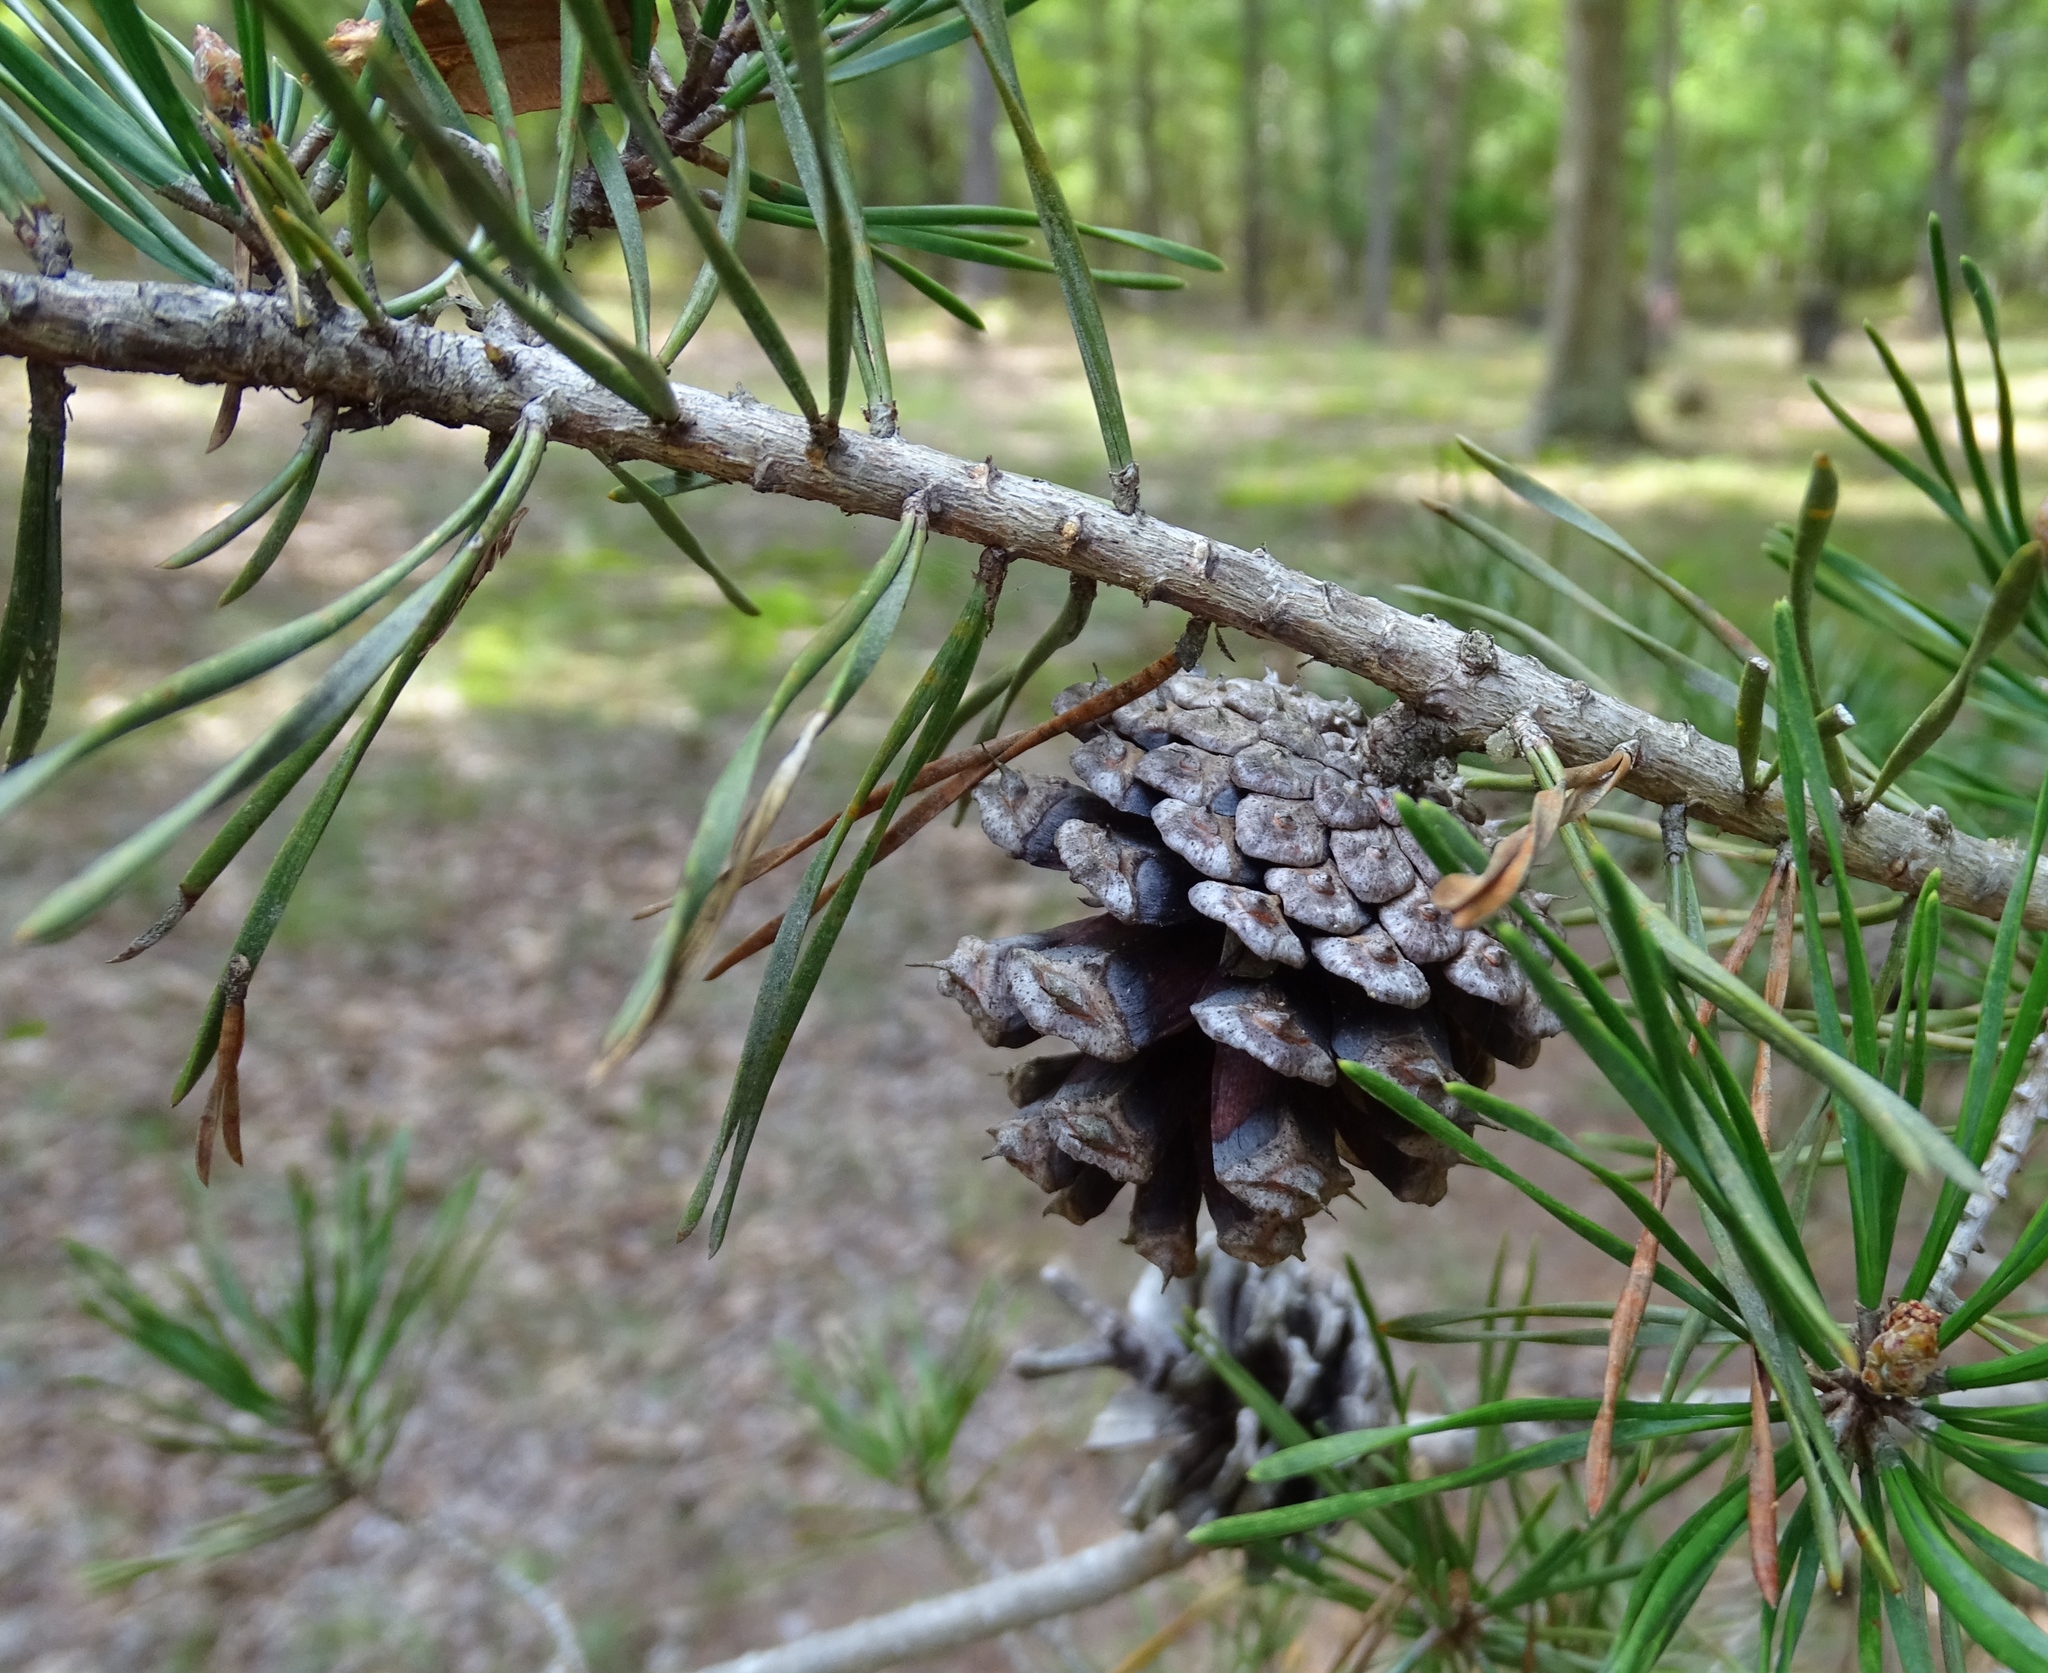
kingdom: Plantae
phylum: Tracheophyta
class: Pinopsida
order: Pinales
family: Pinaceae
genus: Pinus
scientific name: Pinus virginiana
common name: Scrub pine
